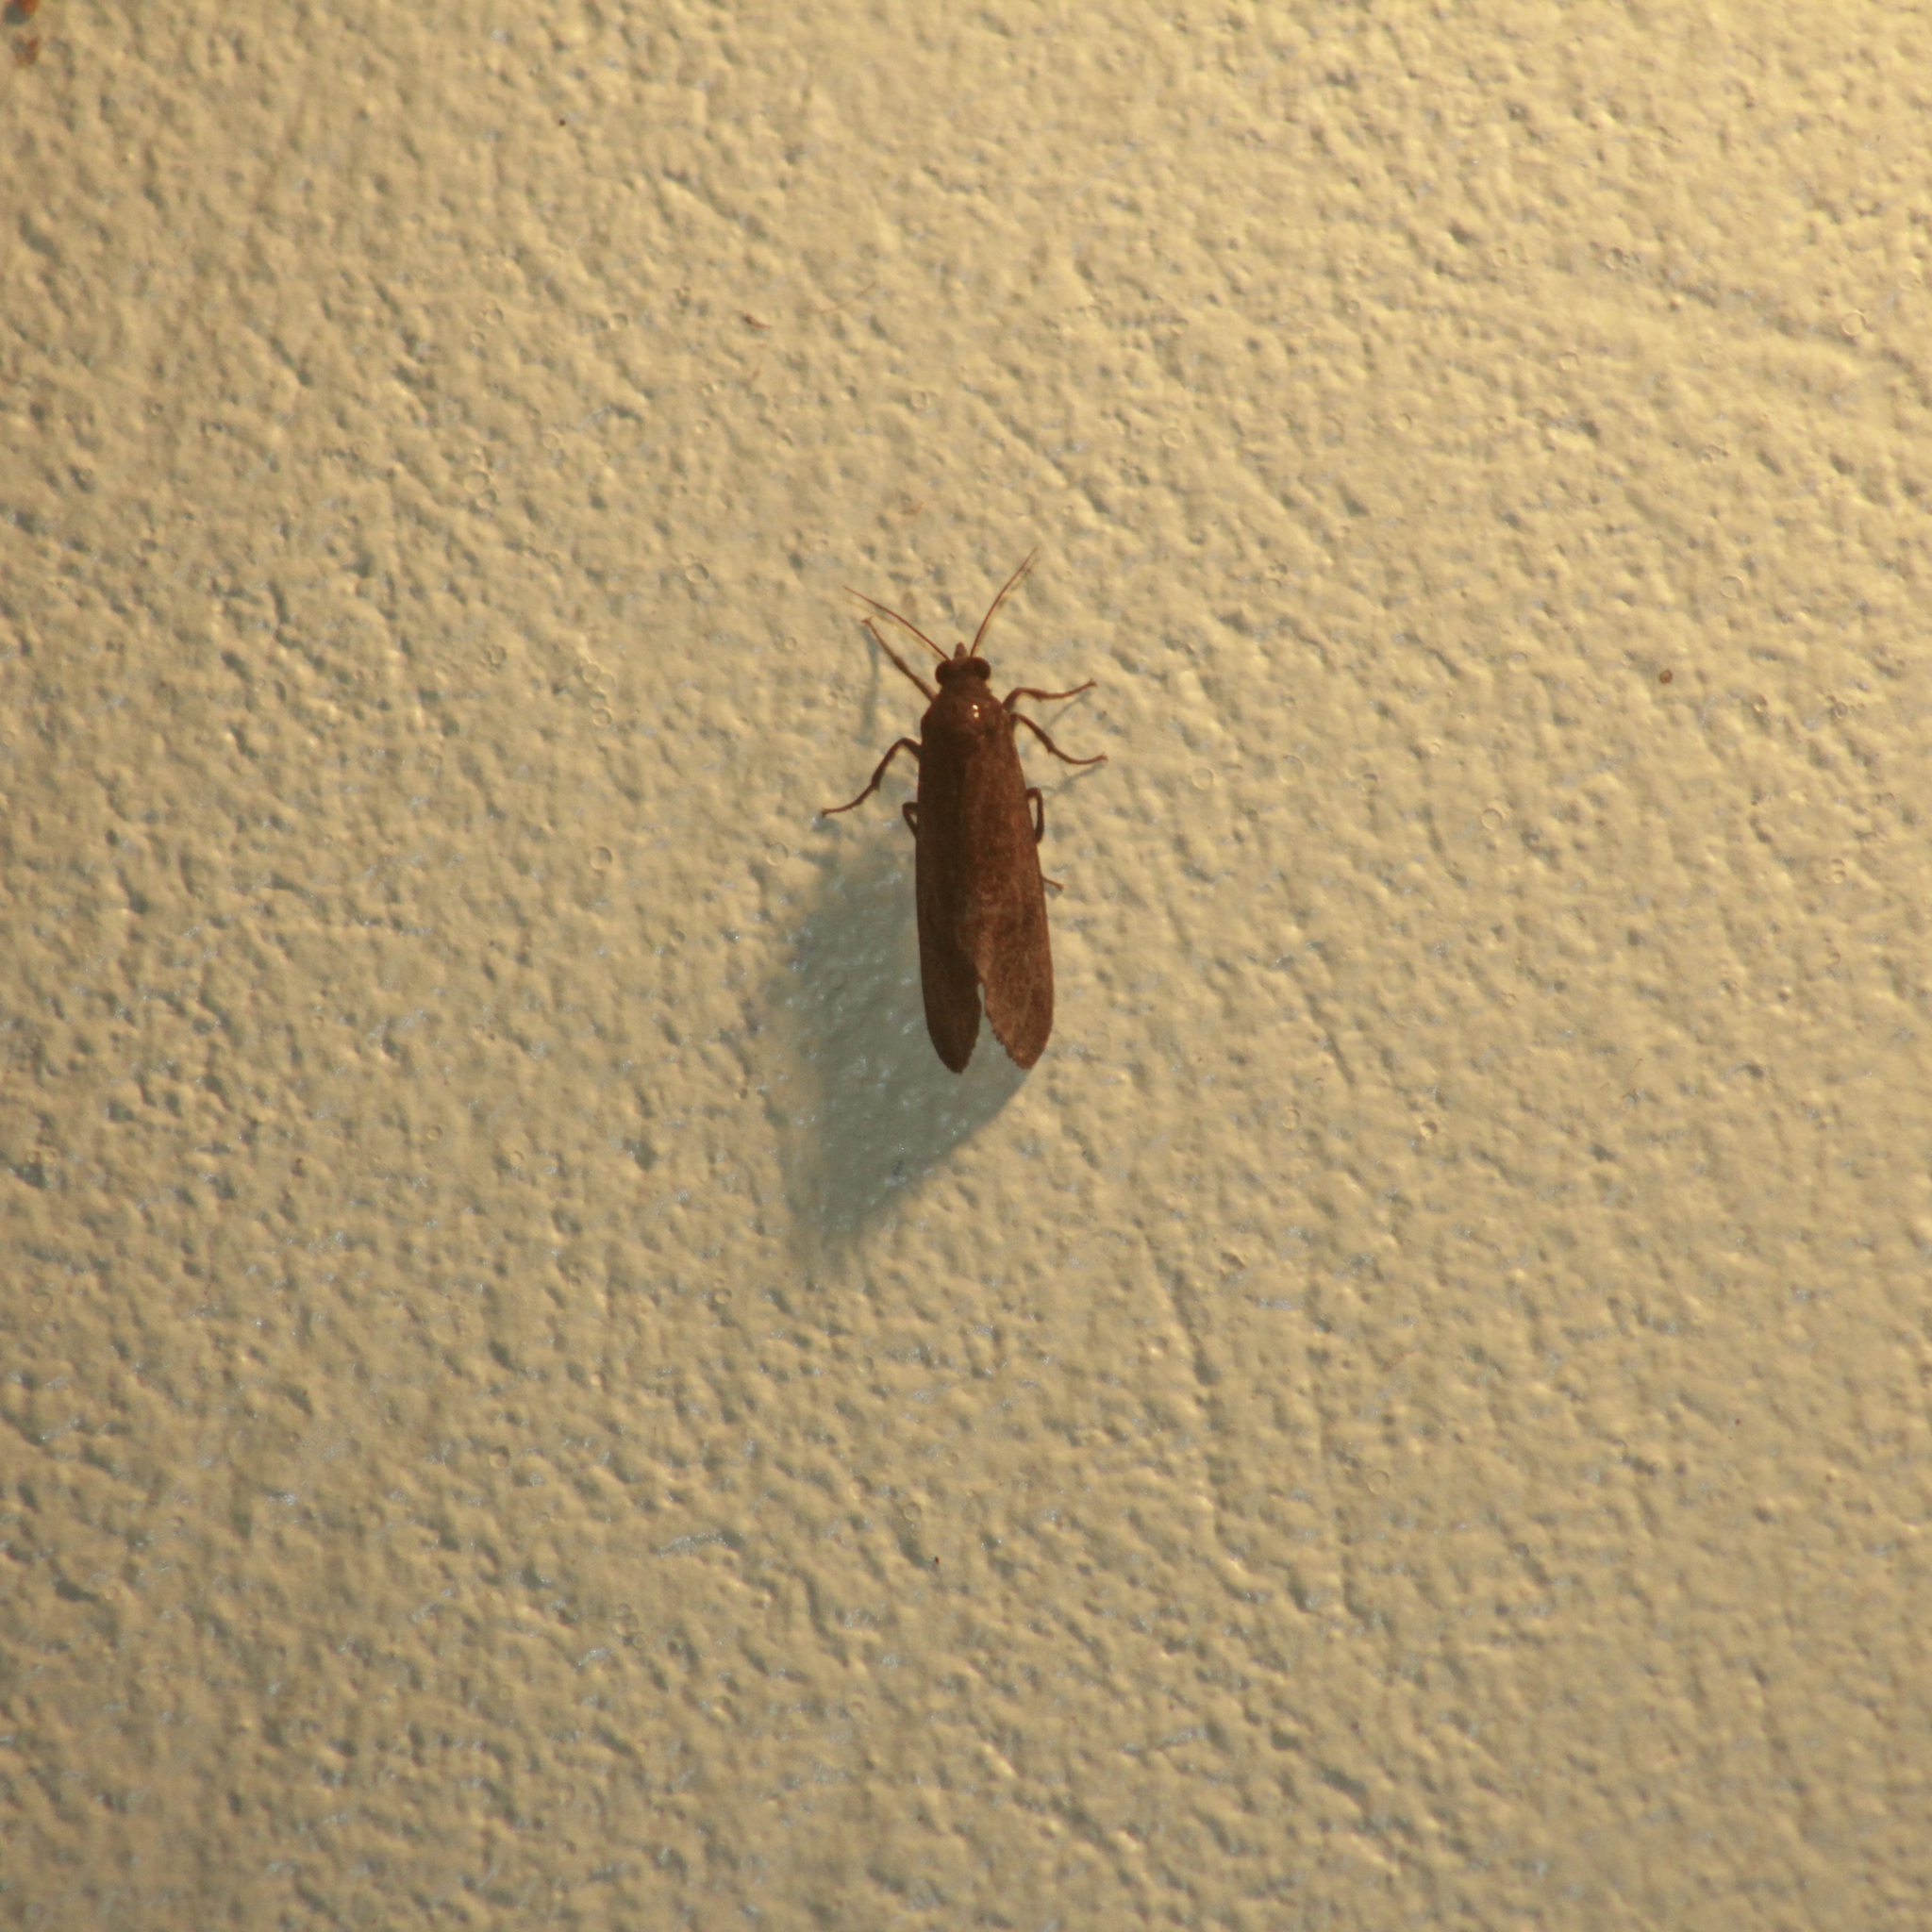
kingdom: Animalia
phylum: Arthropoda
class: Insecta
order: Lepidoptera
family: Erebidae
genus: Virbia
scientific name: Virbia medarda
